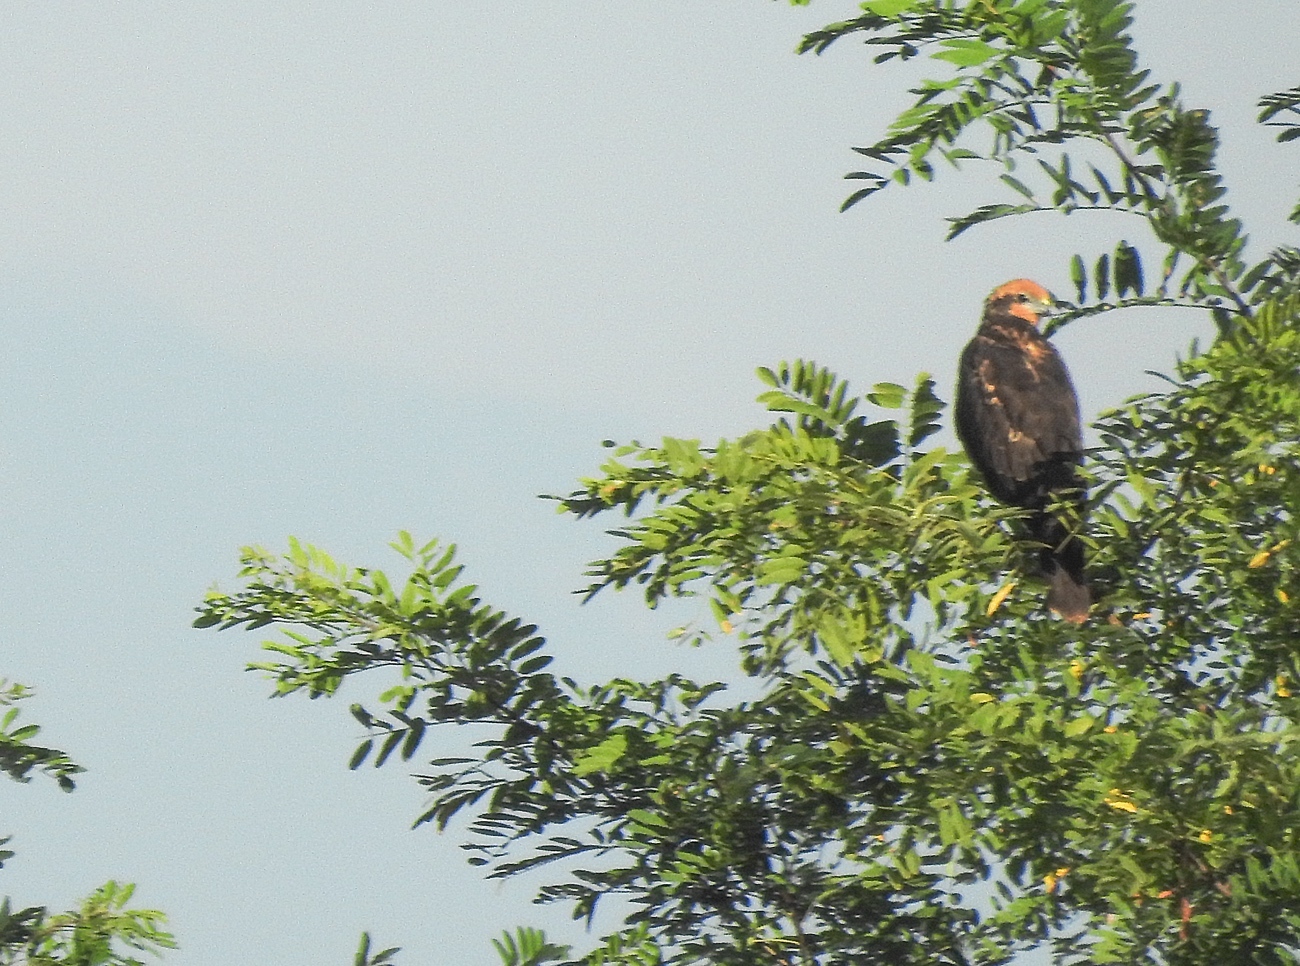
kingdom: Animalia
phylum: Chordata
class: Aves
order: Accipitriformes
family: Accipitridae
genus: Circus
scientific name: Circus aeruginosus
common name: Western marsh harrier
